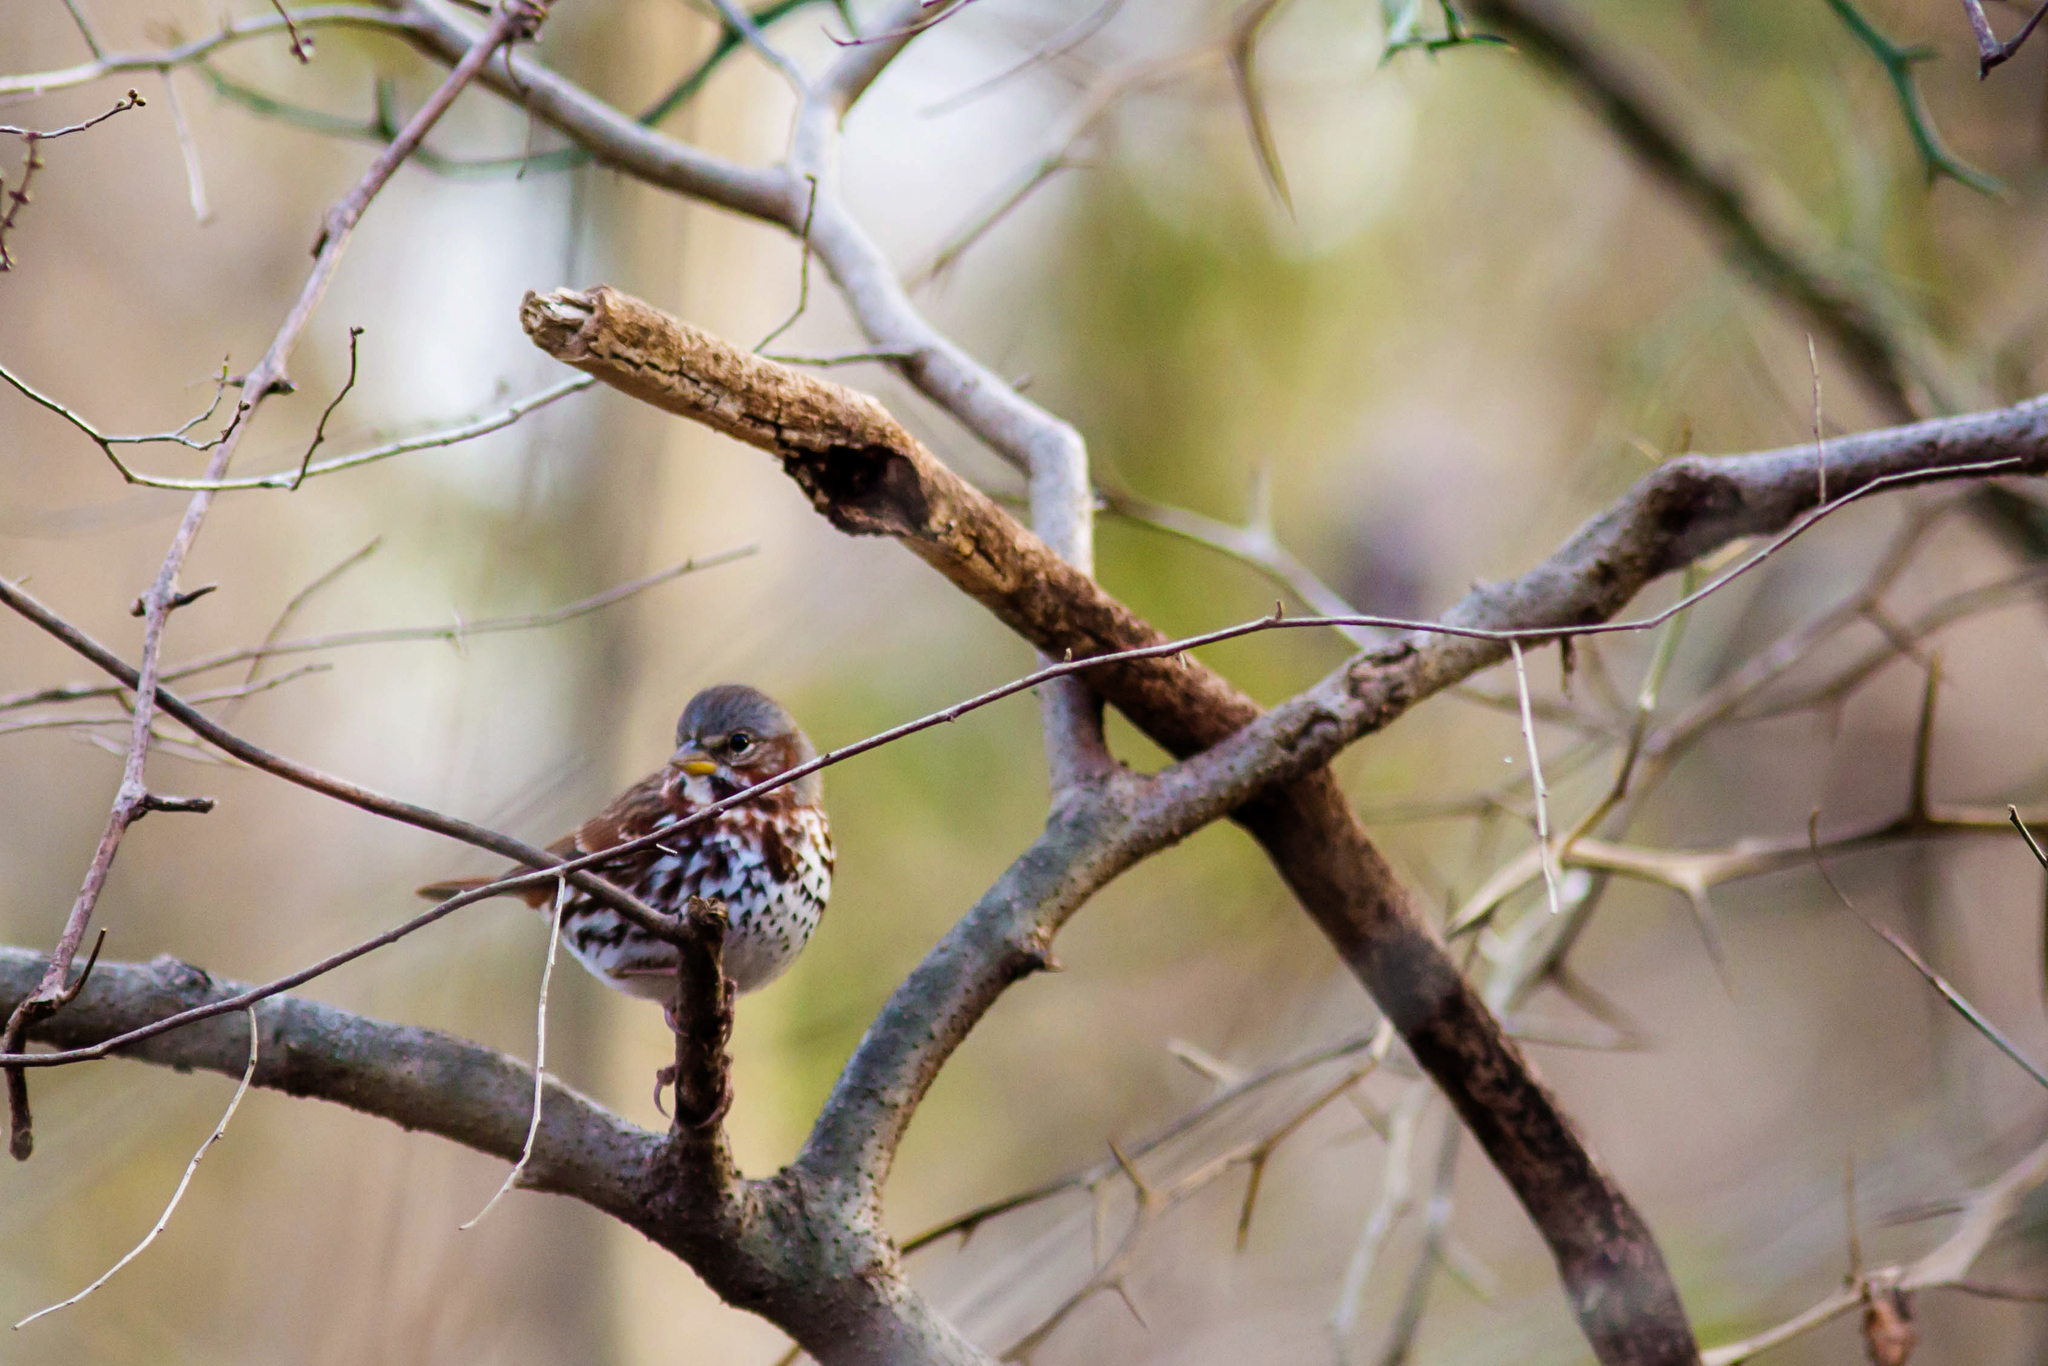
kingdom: Animalia
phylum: Chordata
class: Aves
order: Passeriformes
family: Passerellidae
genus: Passerella
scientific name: Passerella iliaca
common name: Fox sparrow
